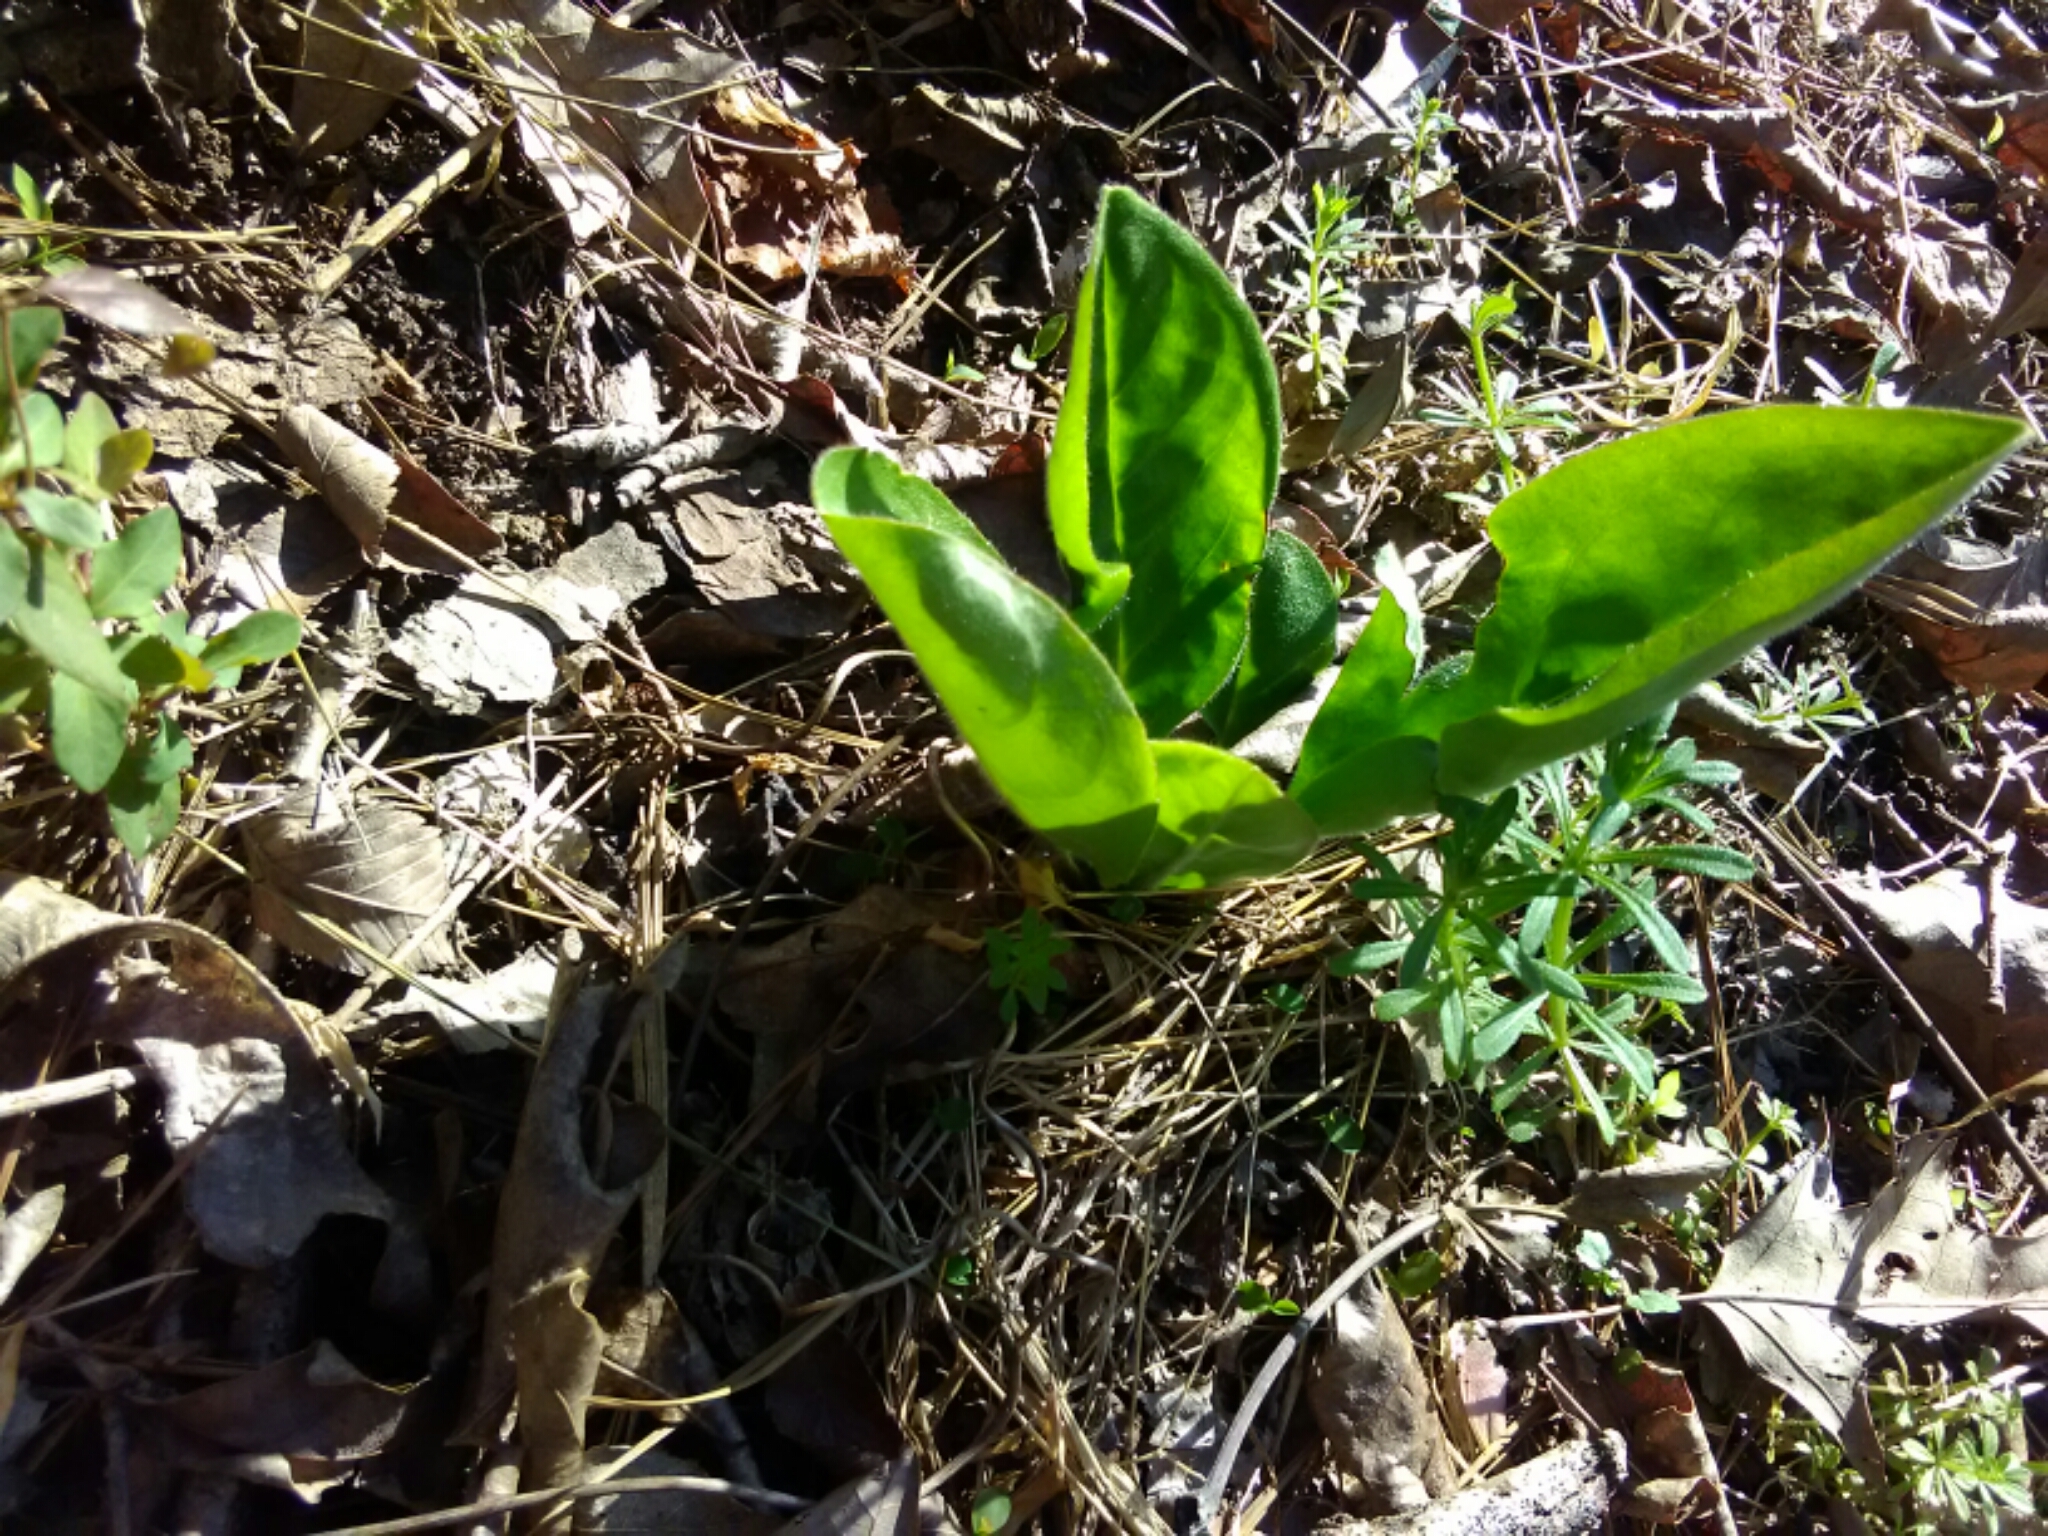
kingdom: Plantae
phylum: Tracheophyta
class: Magnoliopsida
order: Boraginales
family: Boraginaceae
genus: Andersonglossum
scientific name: Andersonglossum virginianum
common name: Wild comfrey
